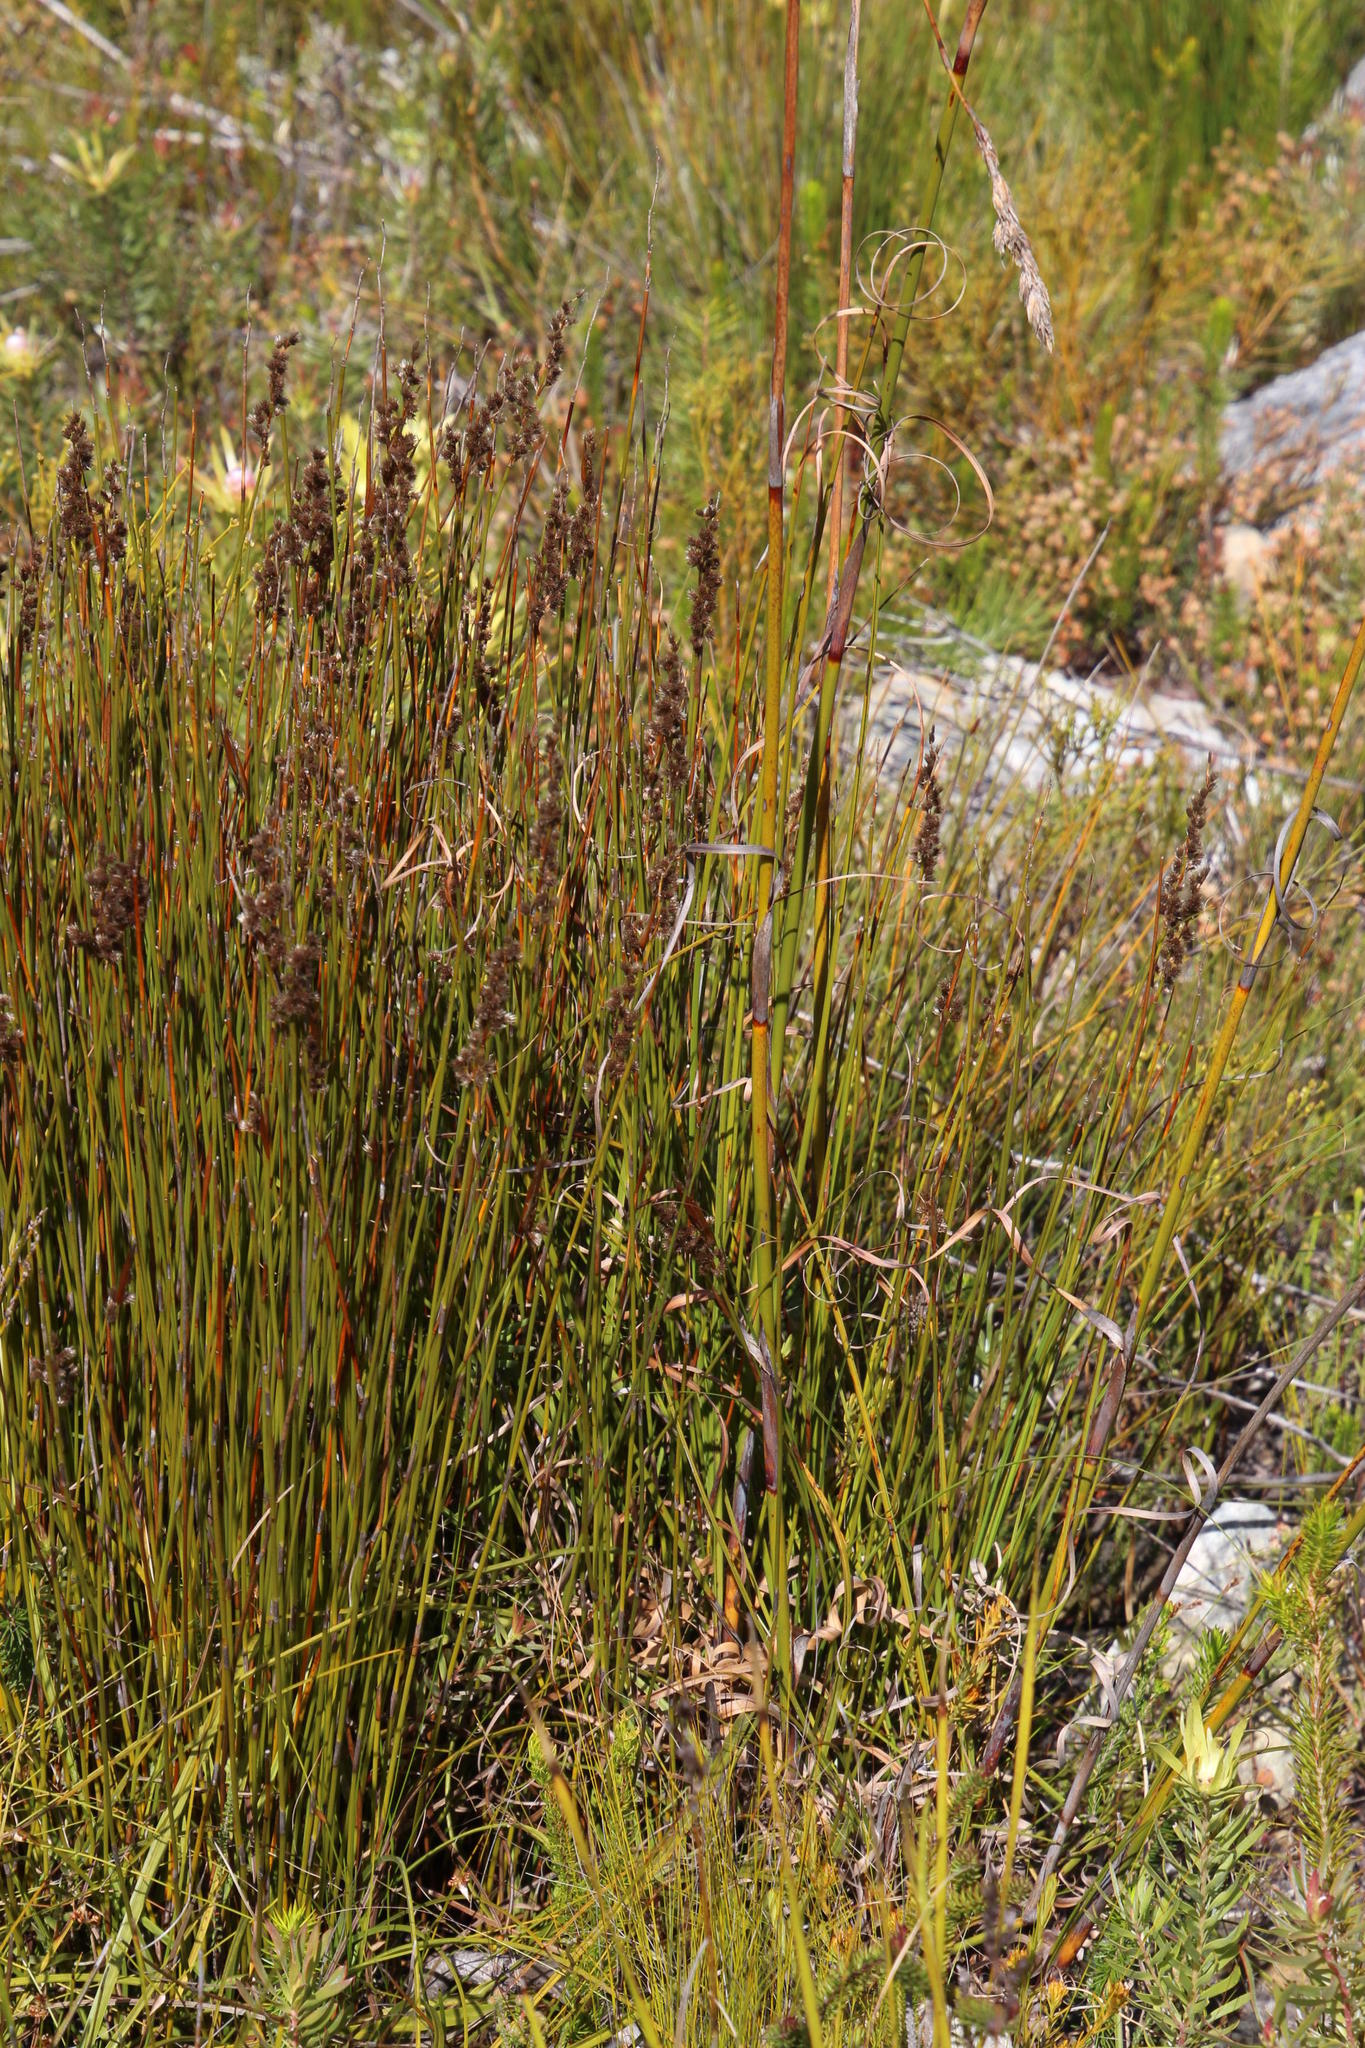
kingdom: Plantae
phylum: Tracheophyta
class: Liliopsida
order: Poales
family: Cyperaceae
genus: Tetraria
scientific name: Tetraria involucrata
